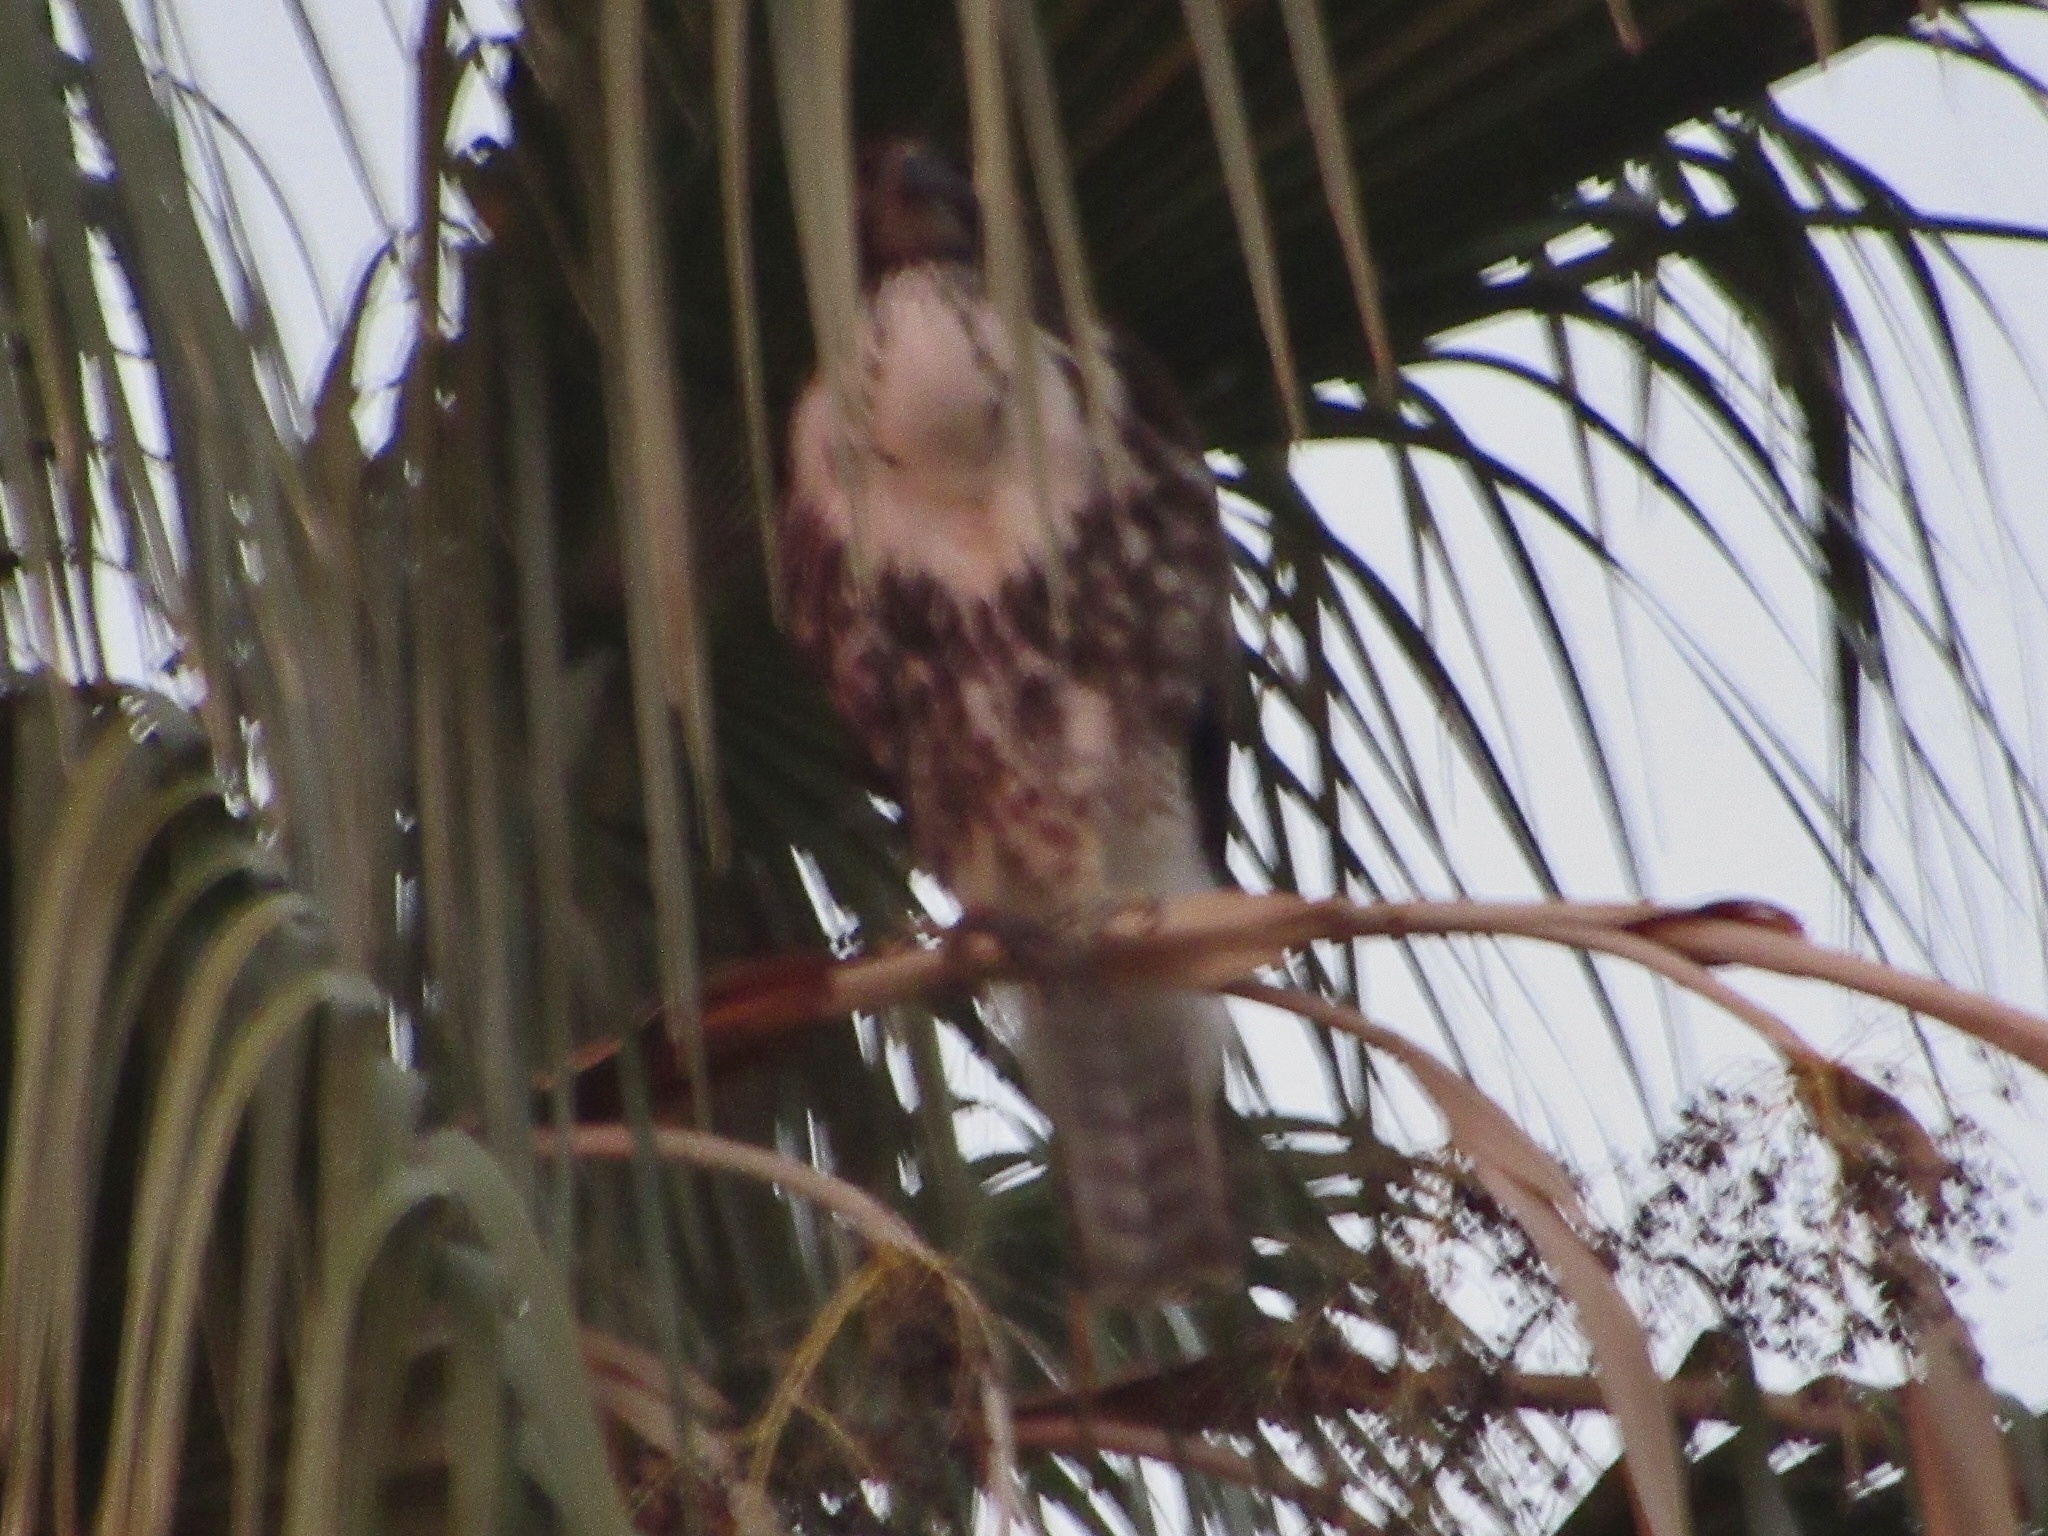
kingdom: Animalia
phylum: Chordata
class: Aves
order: Accipitriformes
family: Accipitridae
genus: Buteo
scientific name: Buteo jamaicensis
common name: Red-tailed hawk
